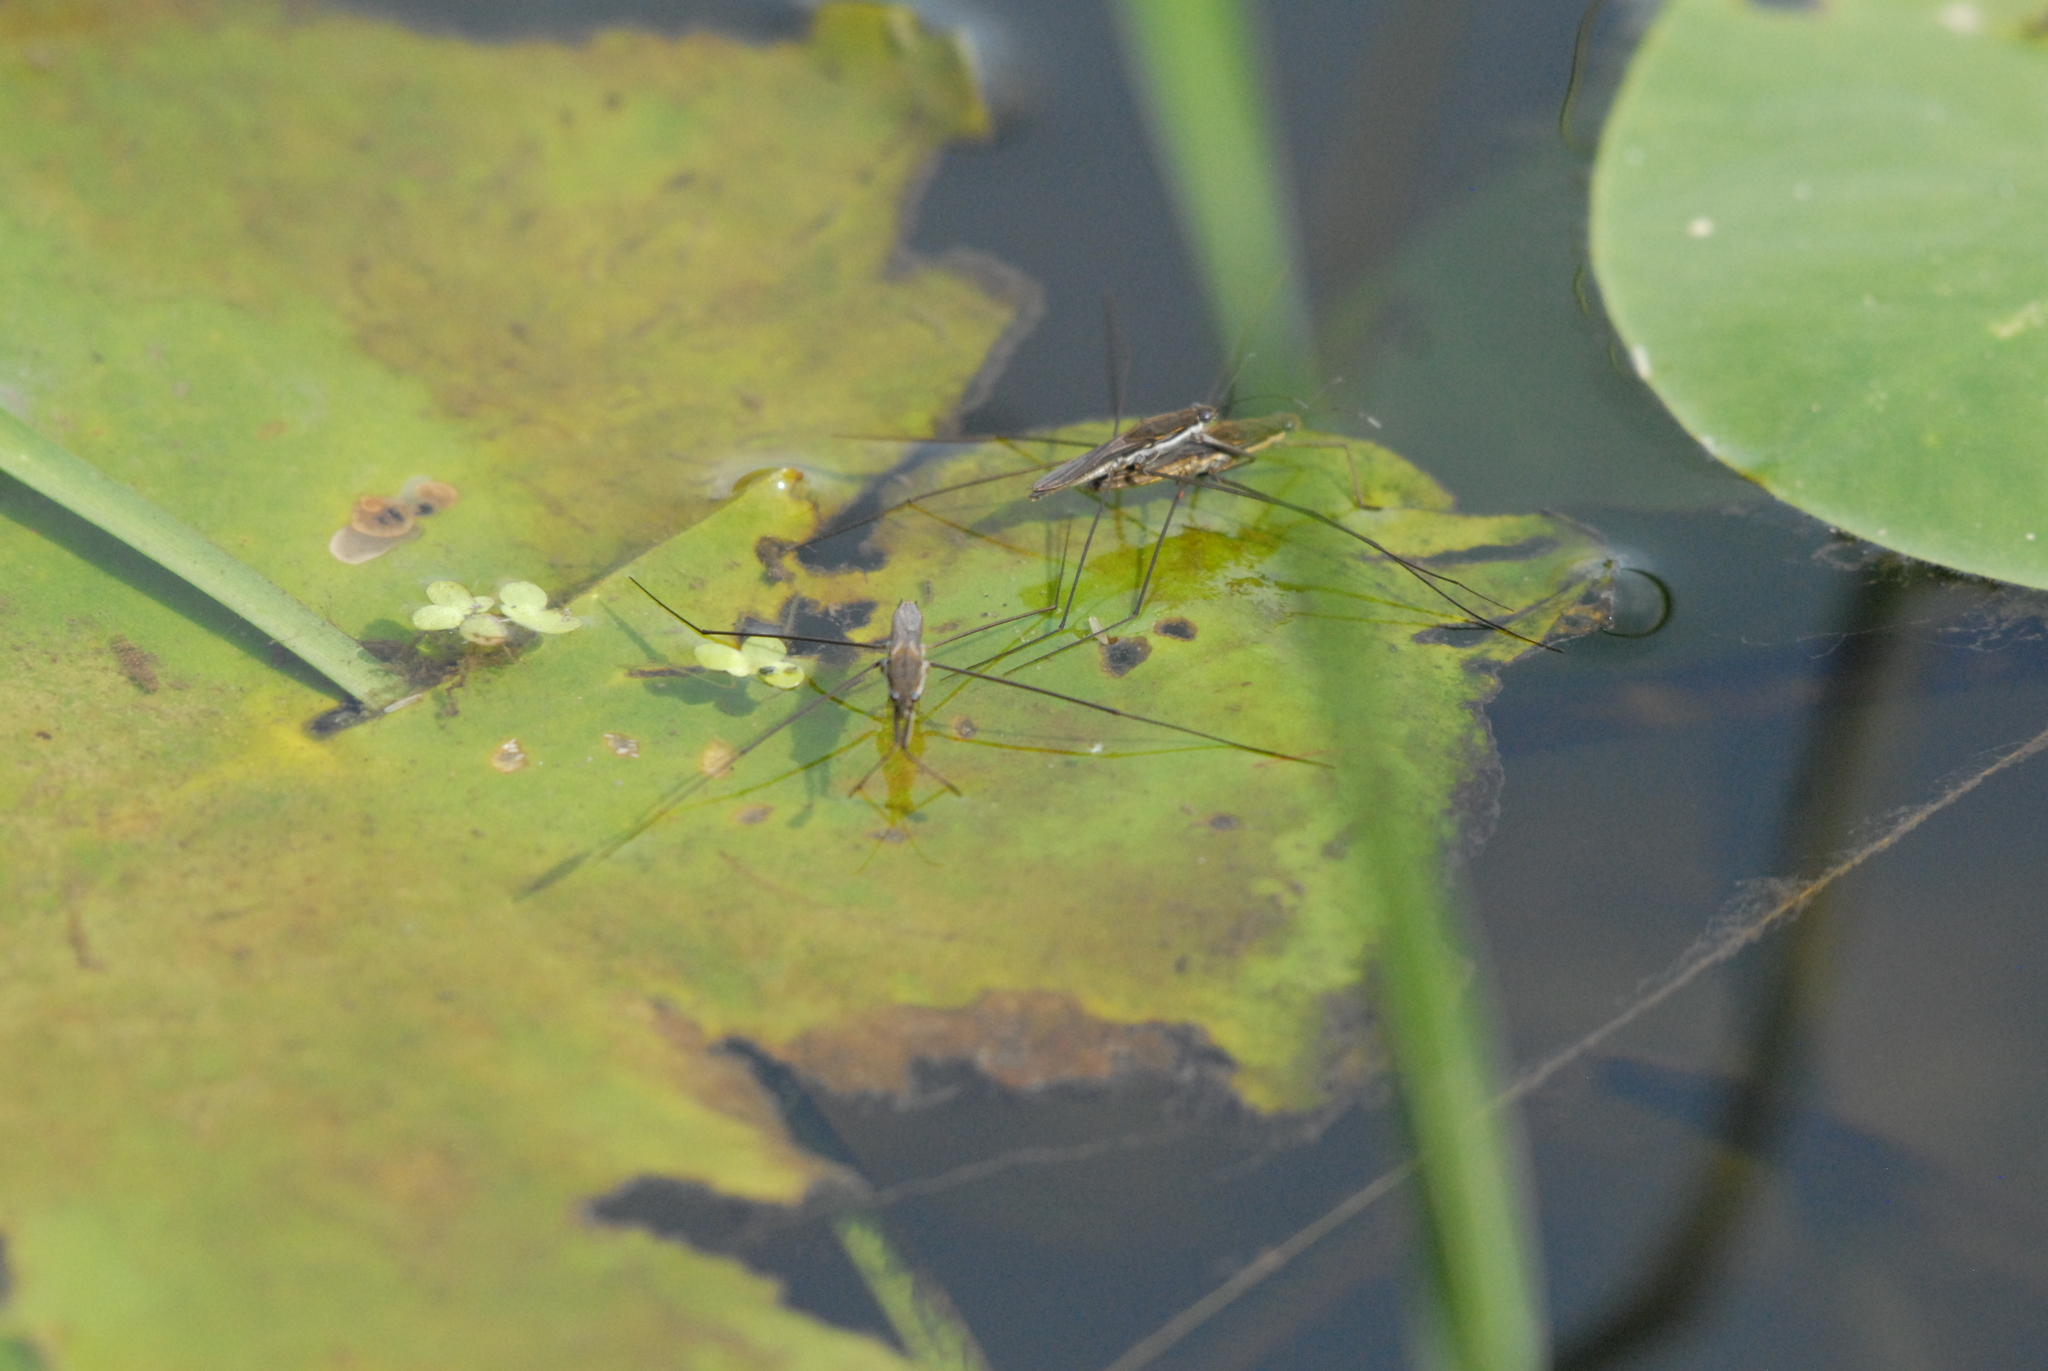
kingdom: Animalia
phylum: Arthropoda
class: Insecta
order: Hemiptera
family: Gerridae
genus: Aquarius
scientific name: Aquarius paludum
